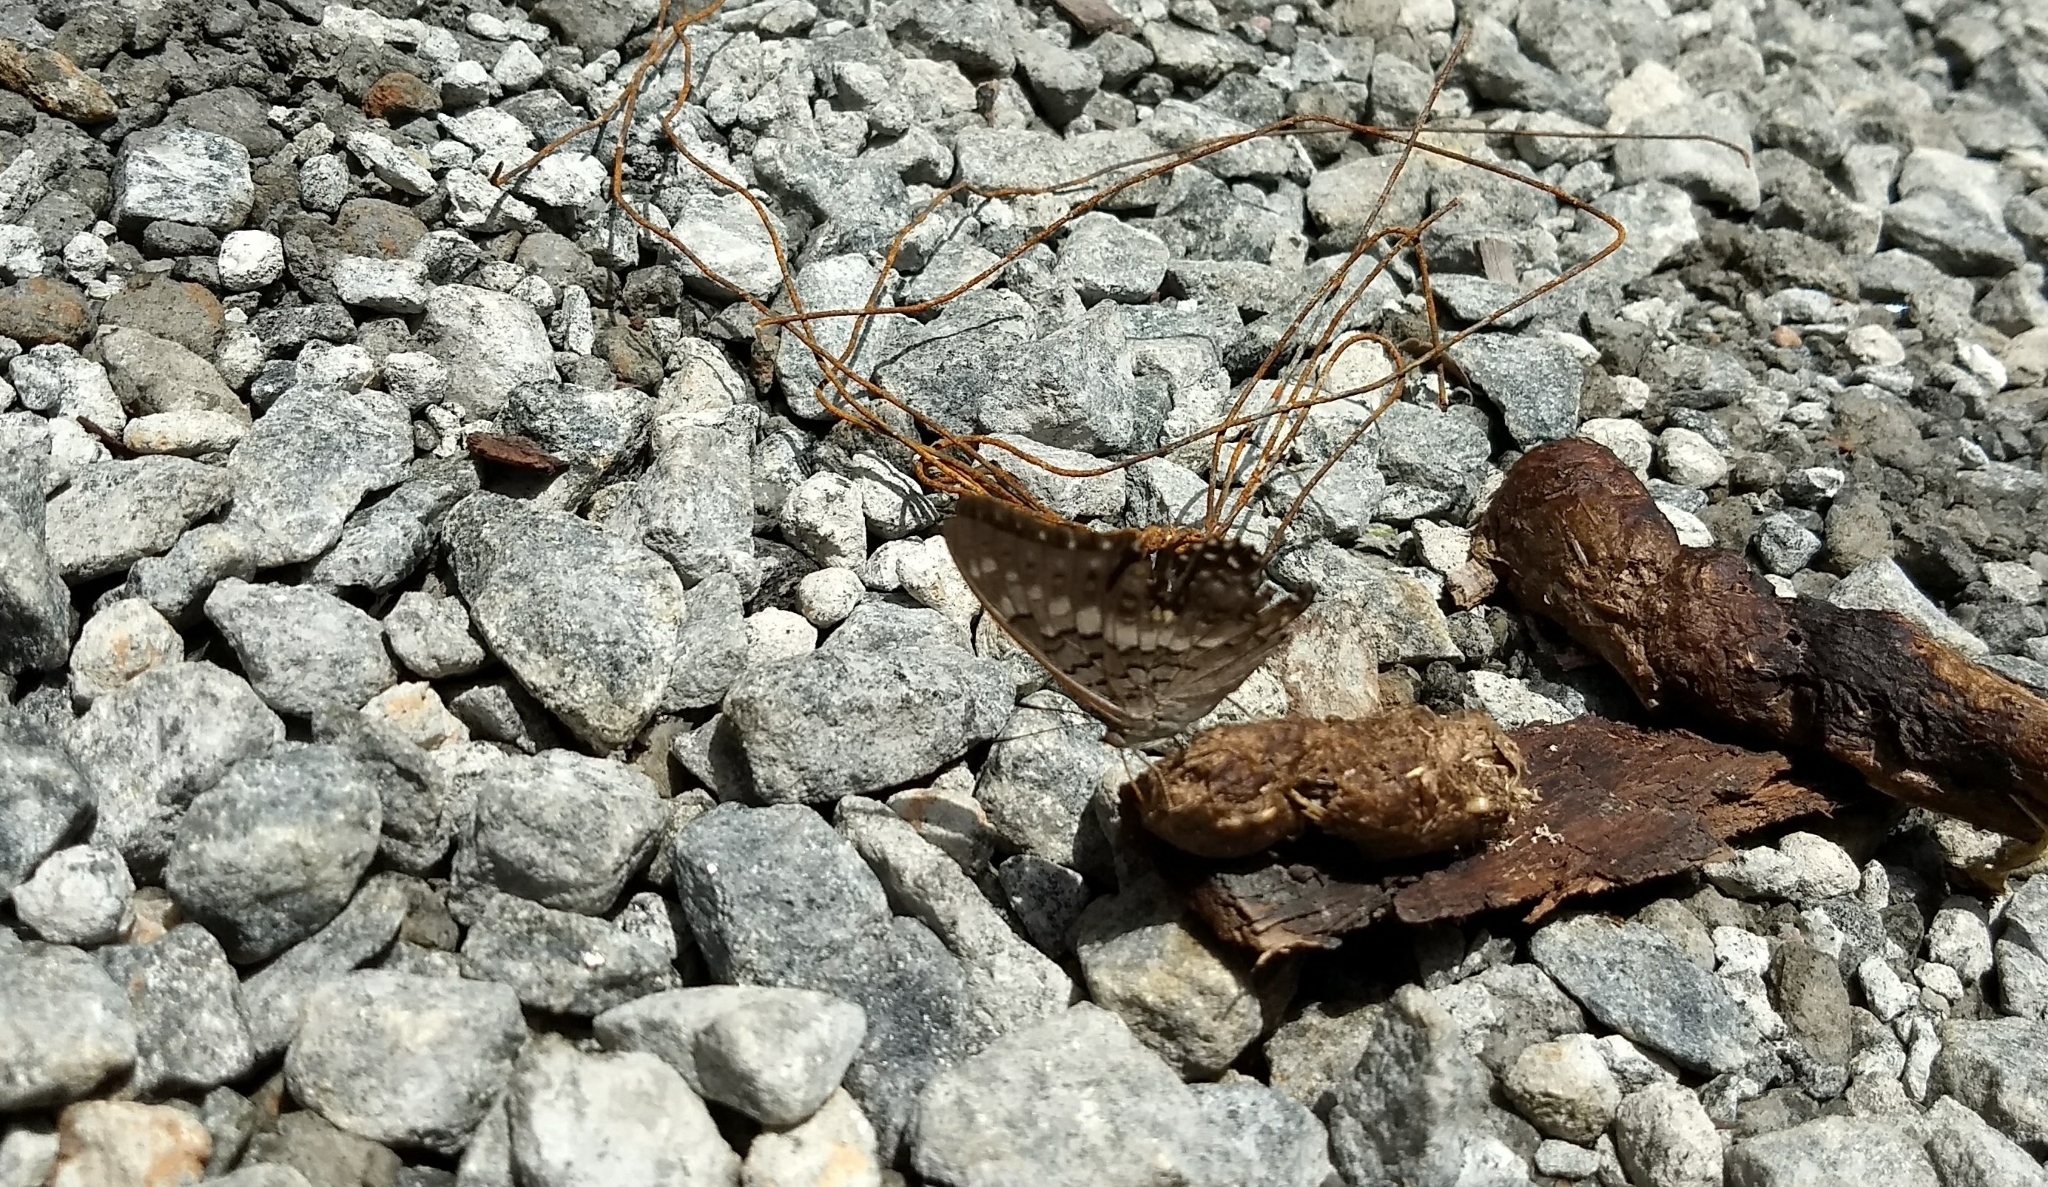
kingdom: Animalia
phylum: Arthropoda
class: Insecta
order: Lepidoptera
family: Nymphalidae
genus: Charaxes
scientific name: Charaxes solon
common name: Black rajah
